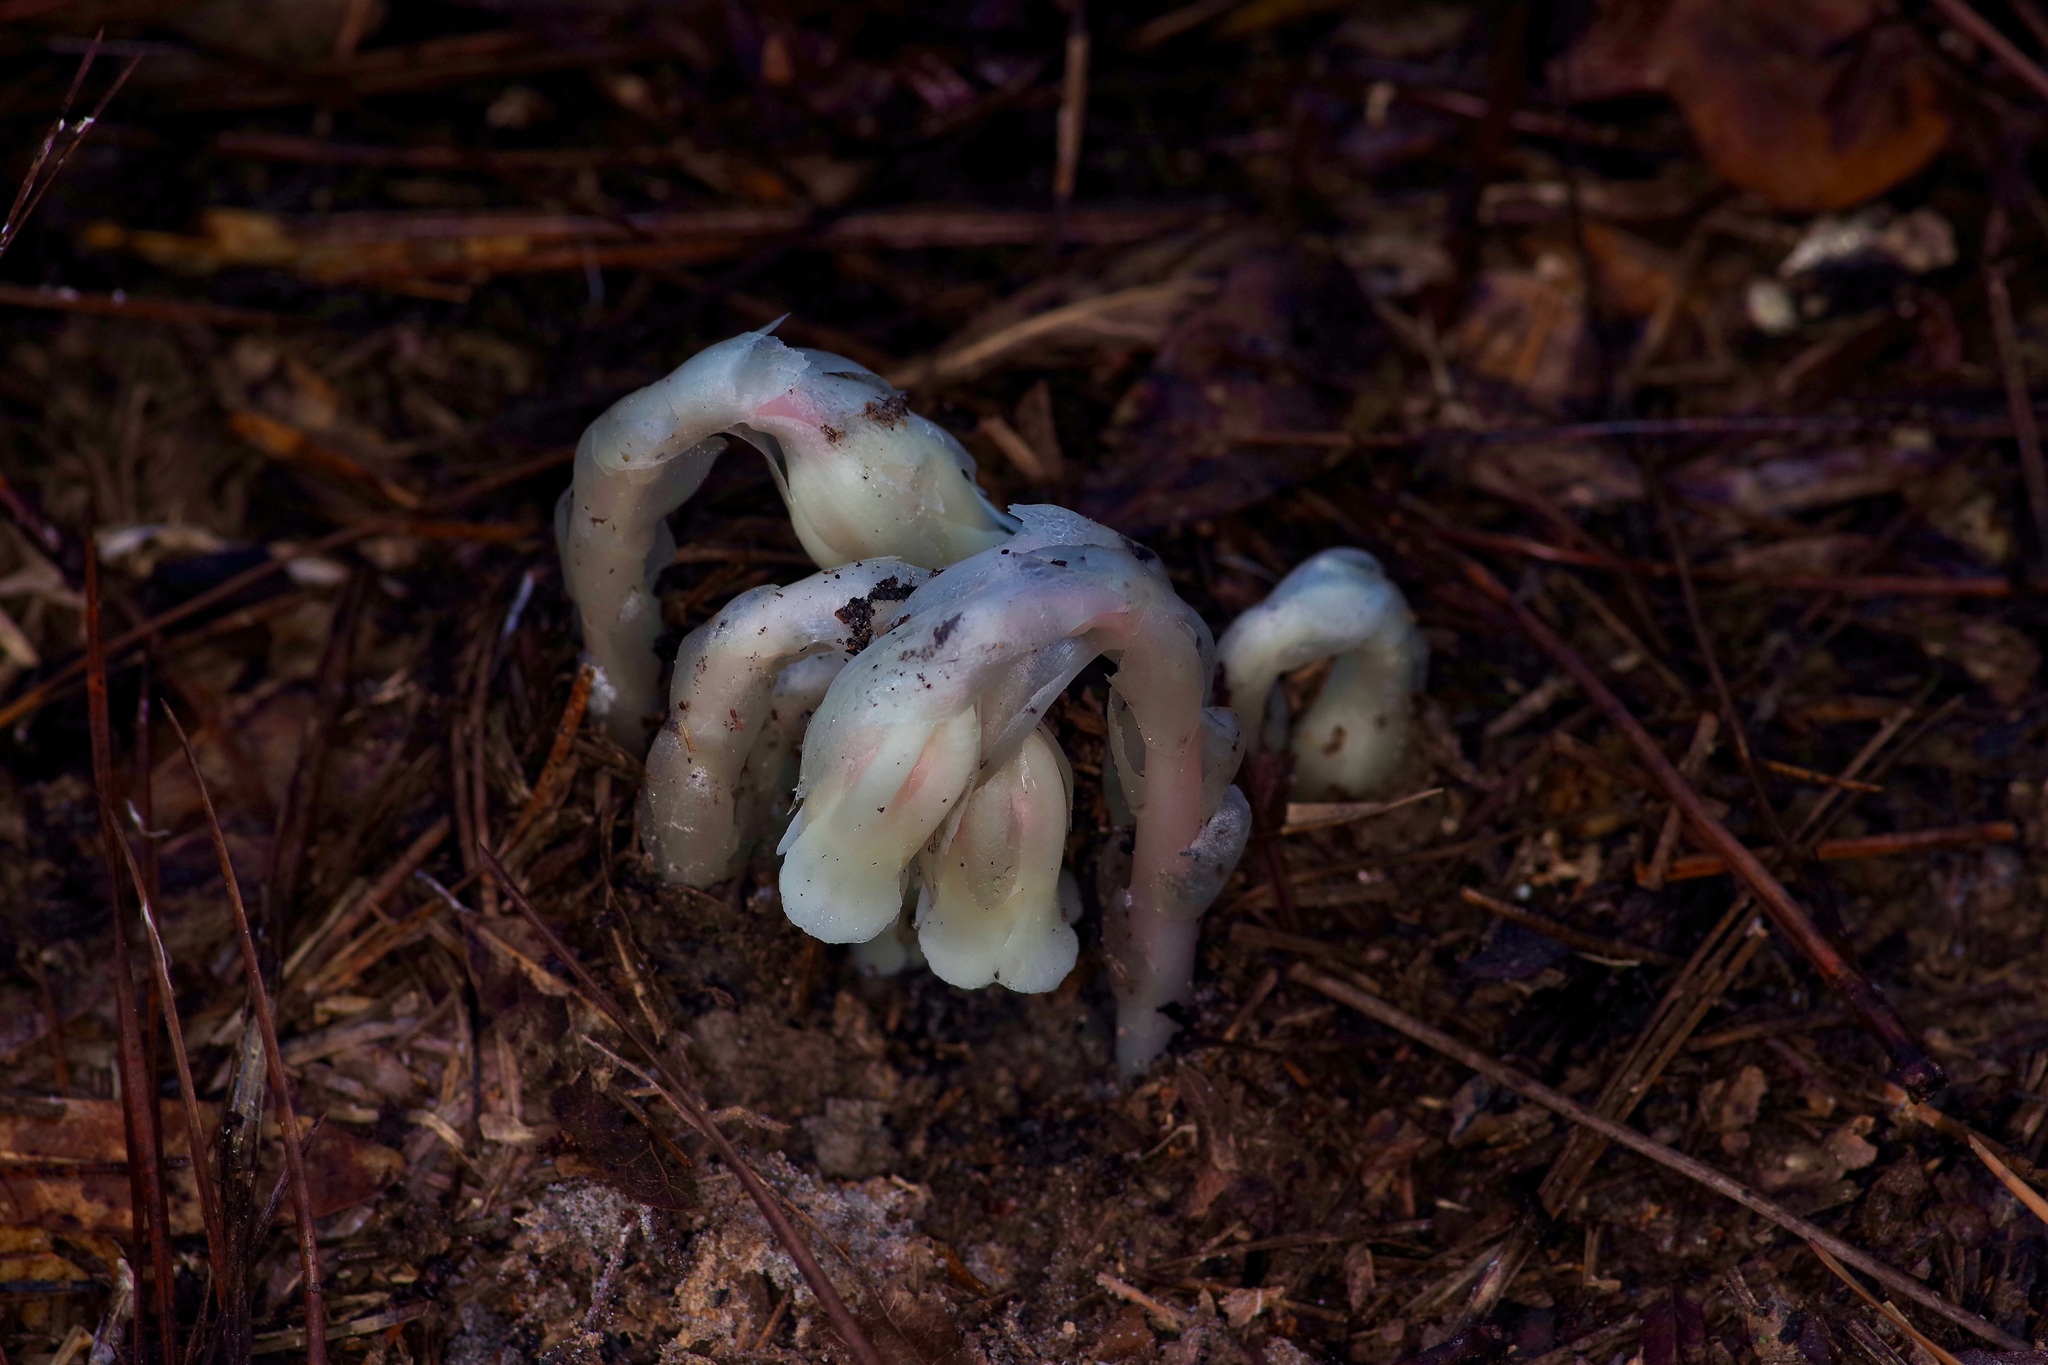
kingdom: Plantae
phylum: Tracheophyta
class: Magnoliopsida
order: Ericales
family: Ericaceae
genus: Monotropa
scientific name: Monotropa uniflora
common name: Convulsion root
